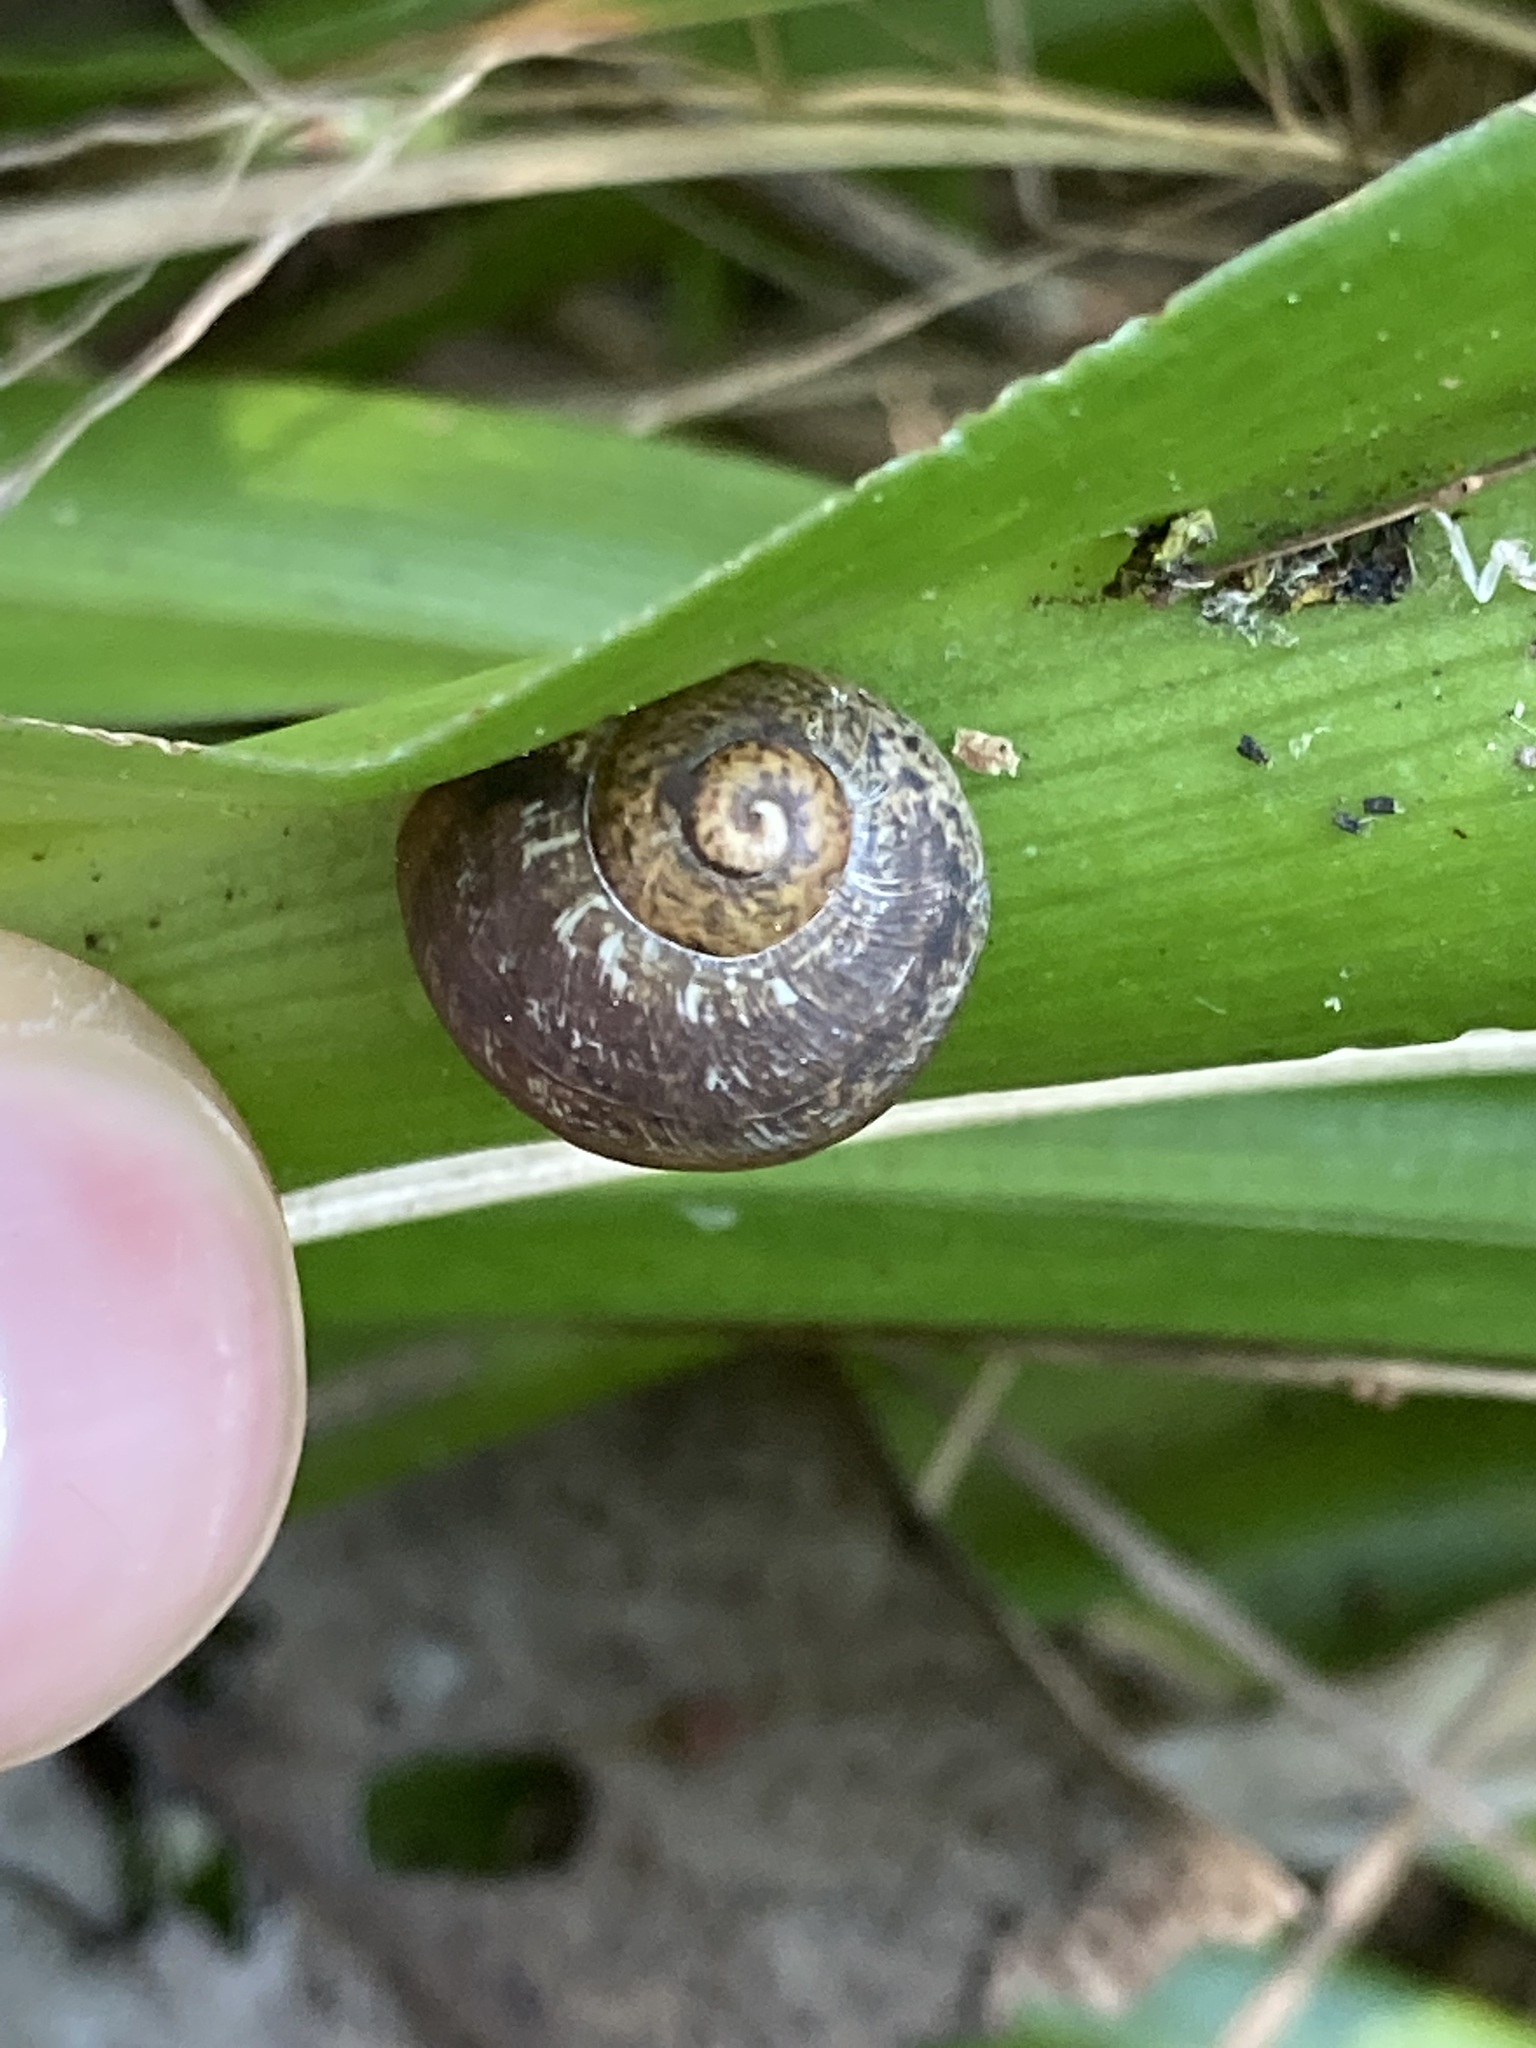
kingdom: Animalia
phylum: Mollusca
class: Gastropoda
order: Stylommatophora
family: Helicidae
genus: Cornu
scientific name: Cornu aspersum
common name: Brown garden snail
